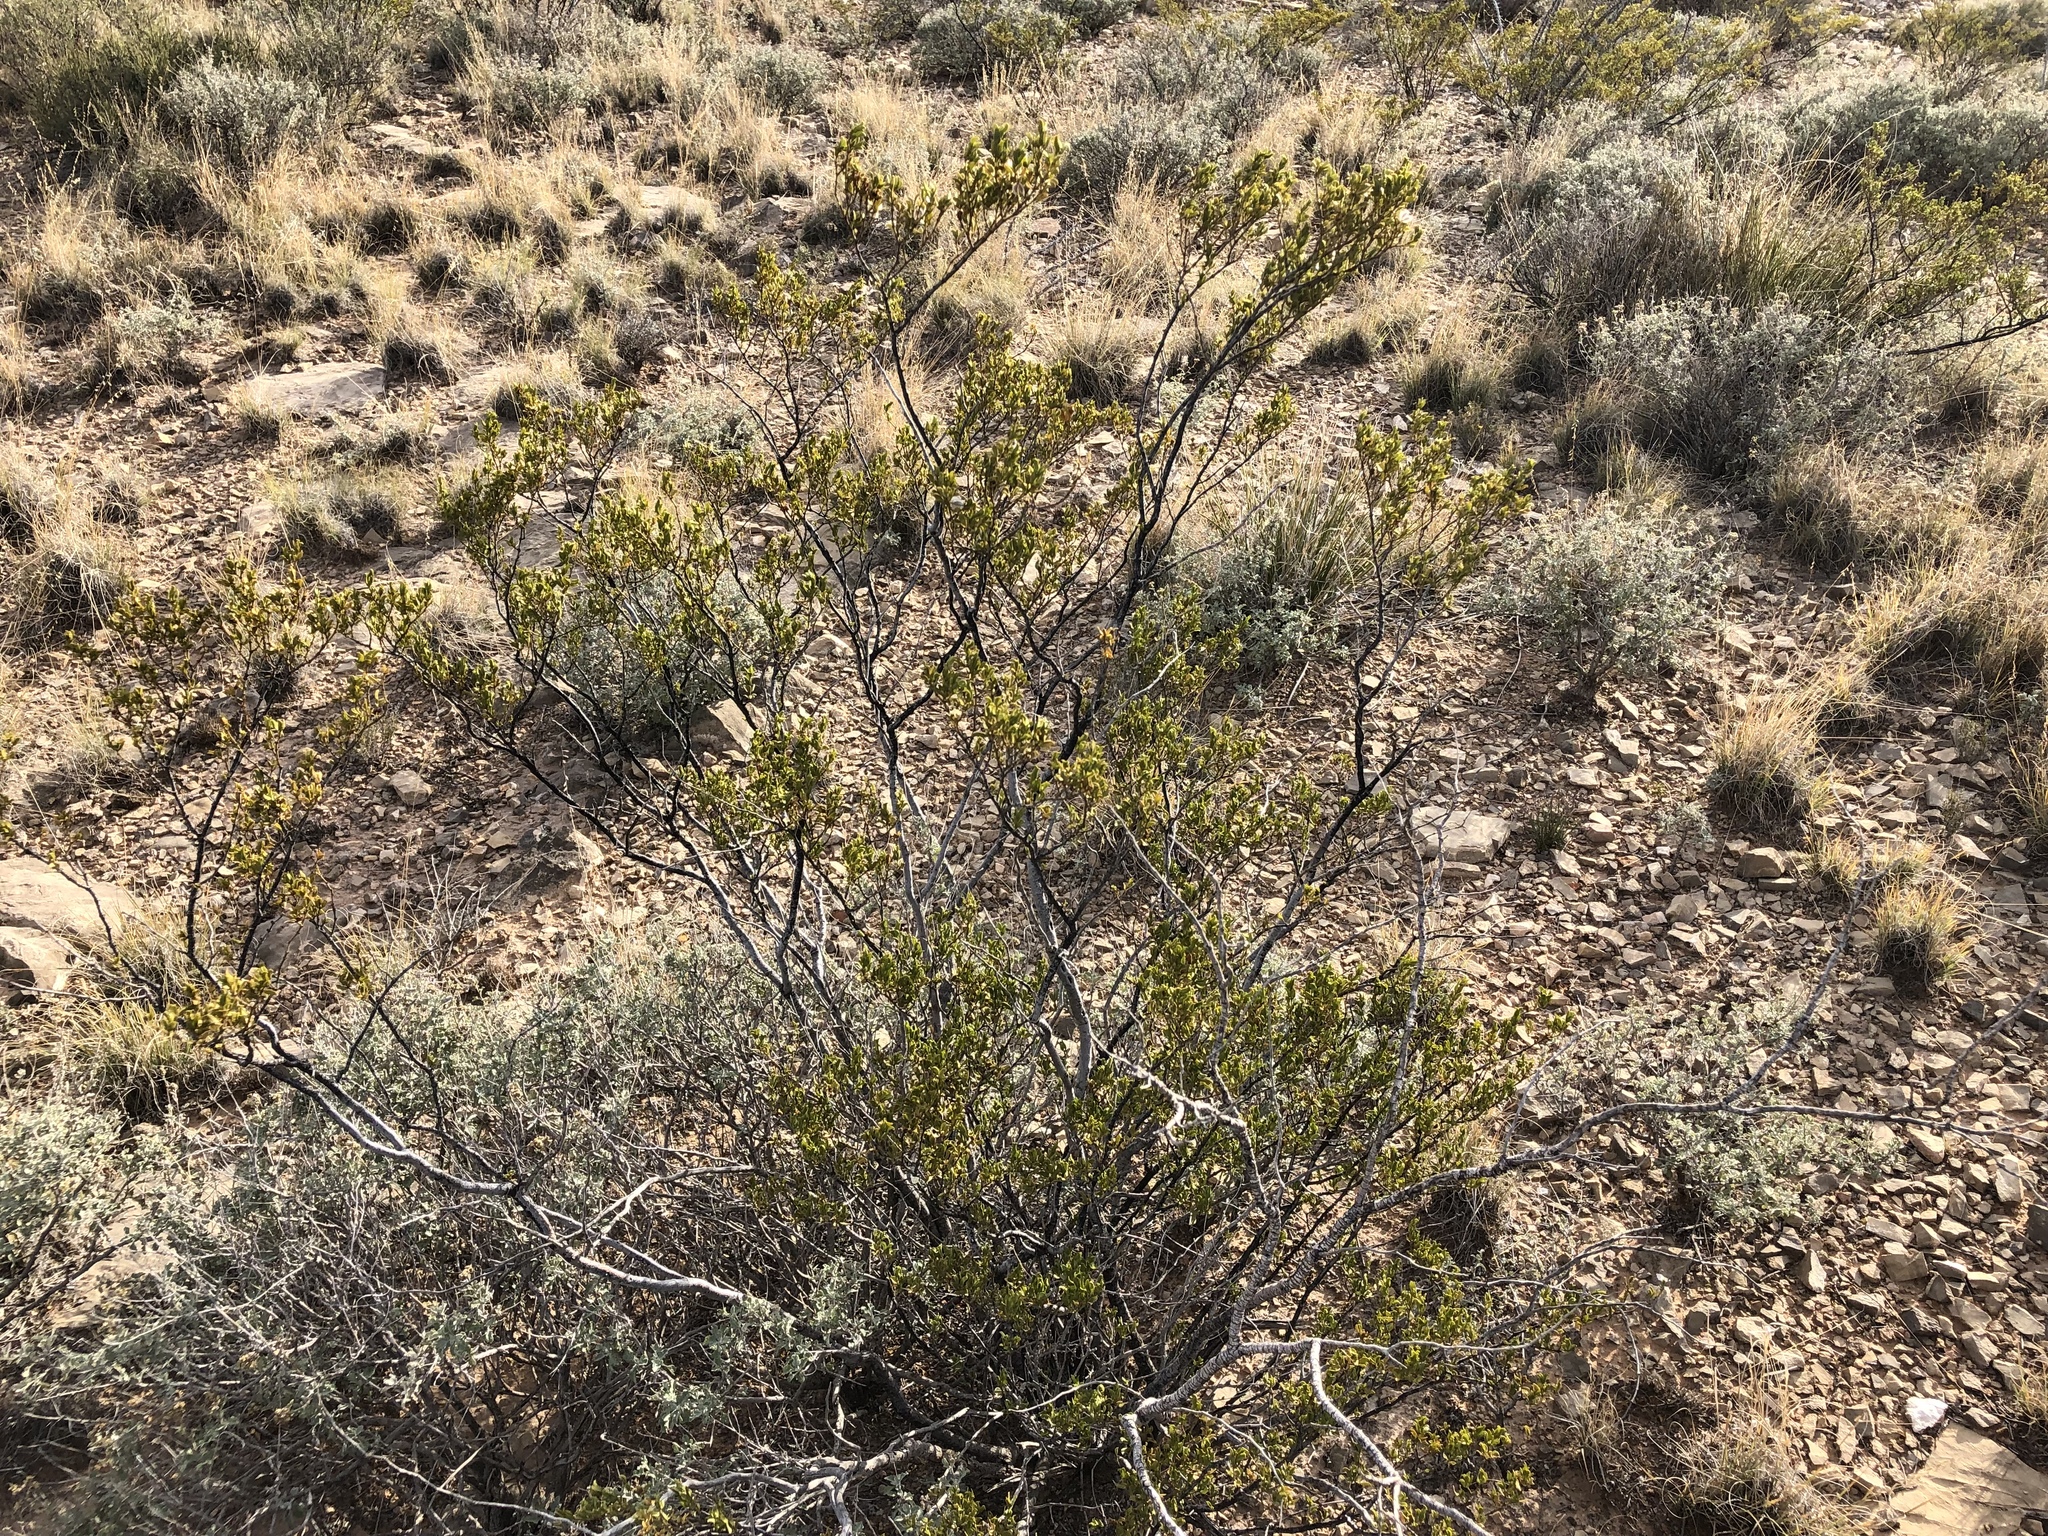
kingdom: Plantae
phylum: Tracheophyta
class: Magnoliopsida
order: Zygophyllales
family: Zygophyllaceae
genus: Larrea
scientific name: Larrea tridentata
